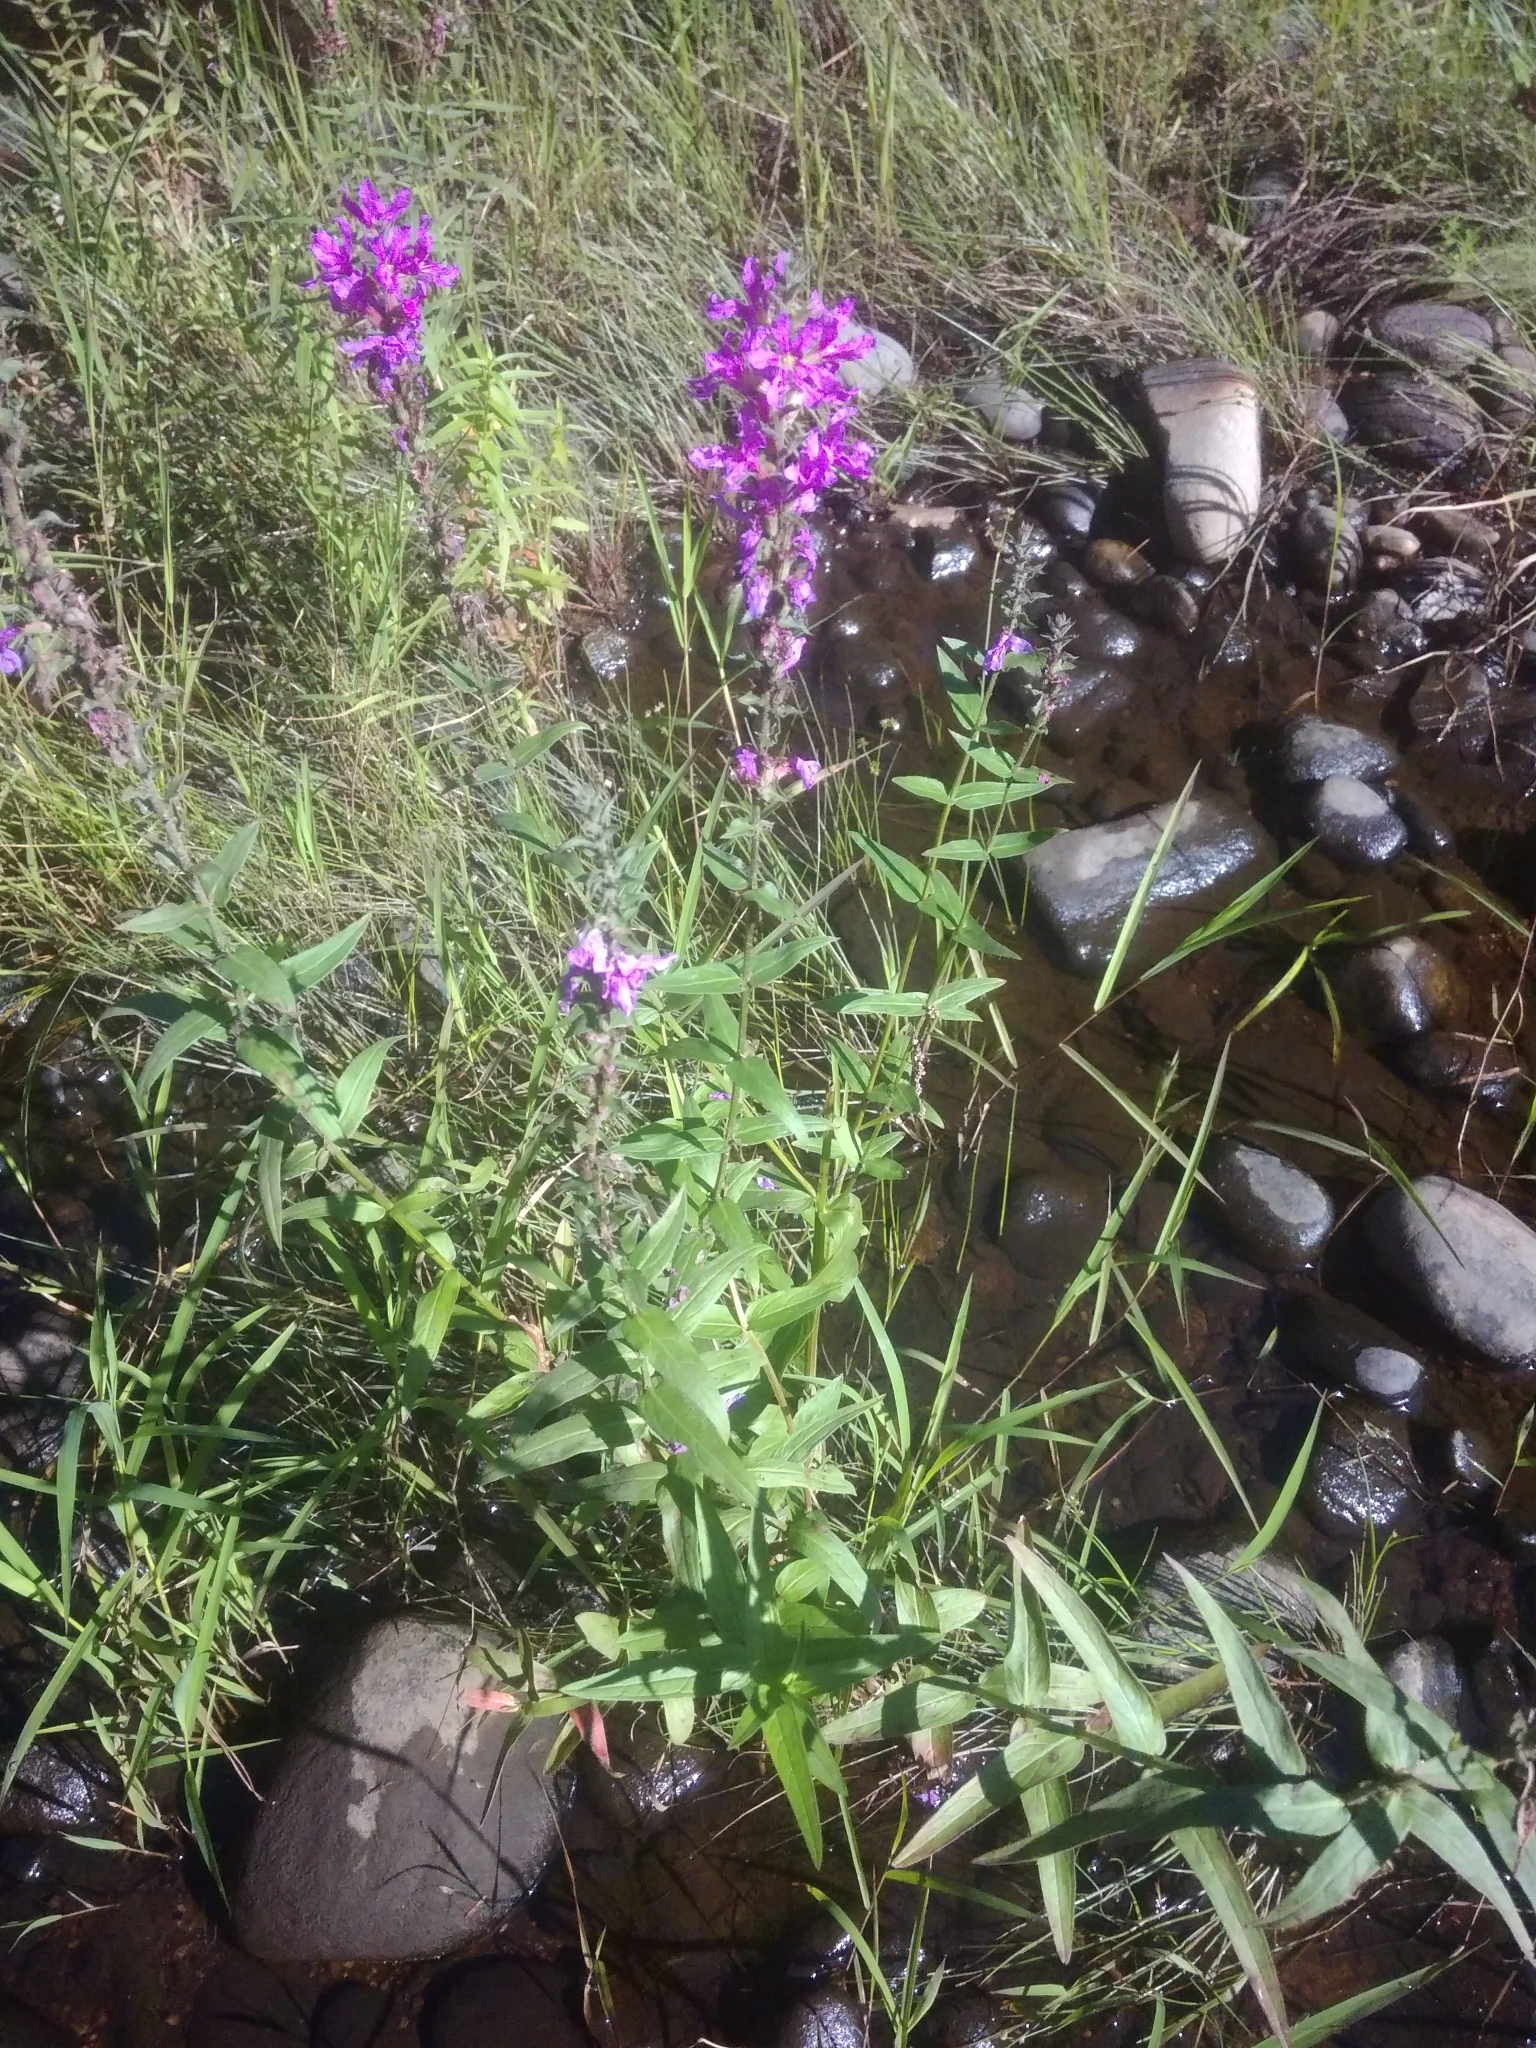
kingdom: Plantae
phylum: Tracheophyta
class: Magnoliopsida
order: Myrtales
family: Lythraceae
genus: Lythrum
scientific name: Lythrum salicaria
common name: Purple loosestrife
